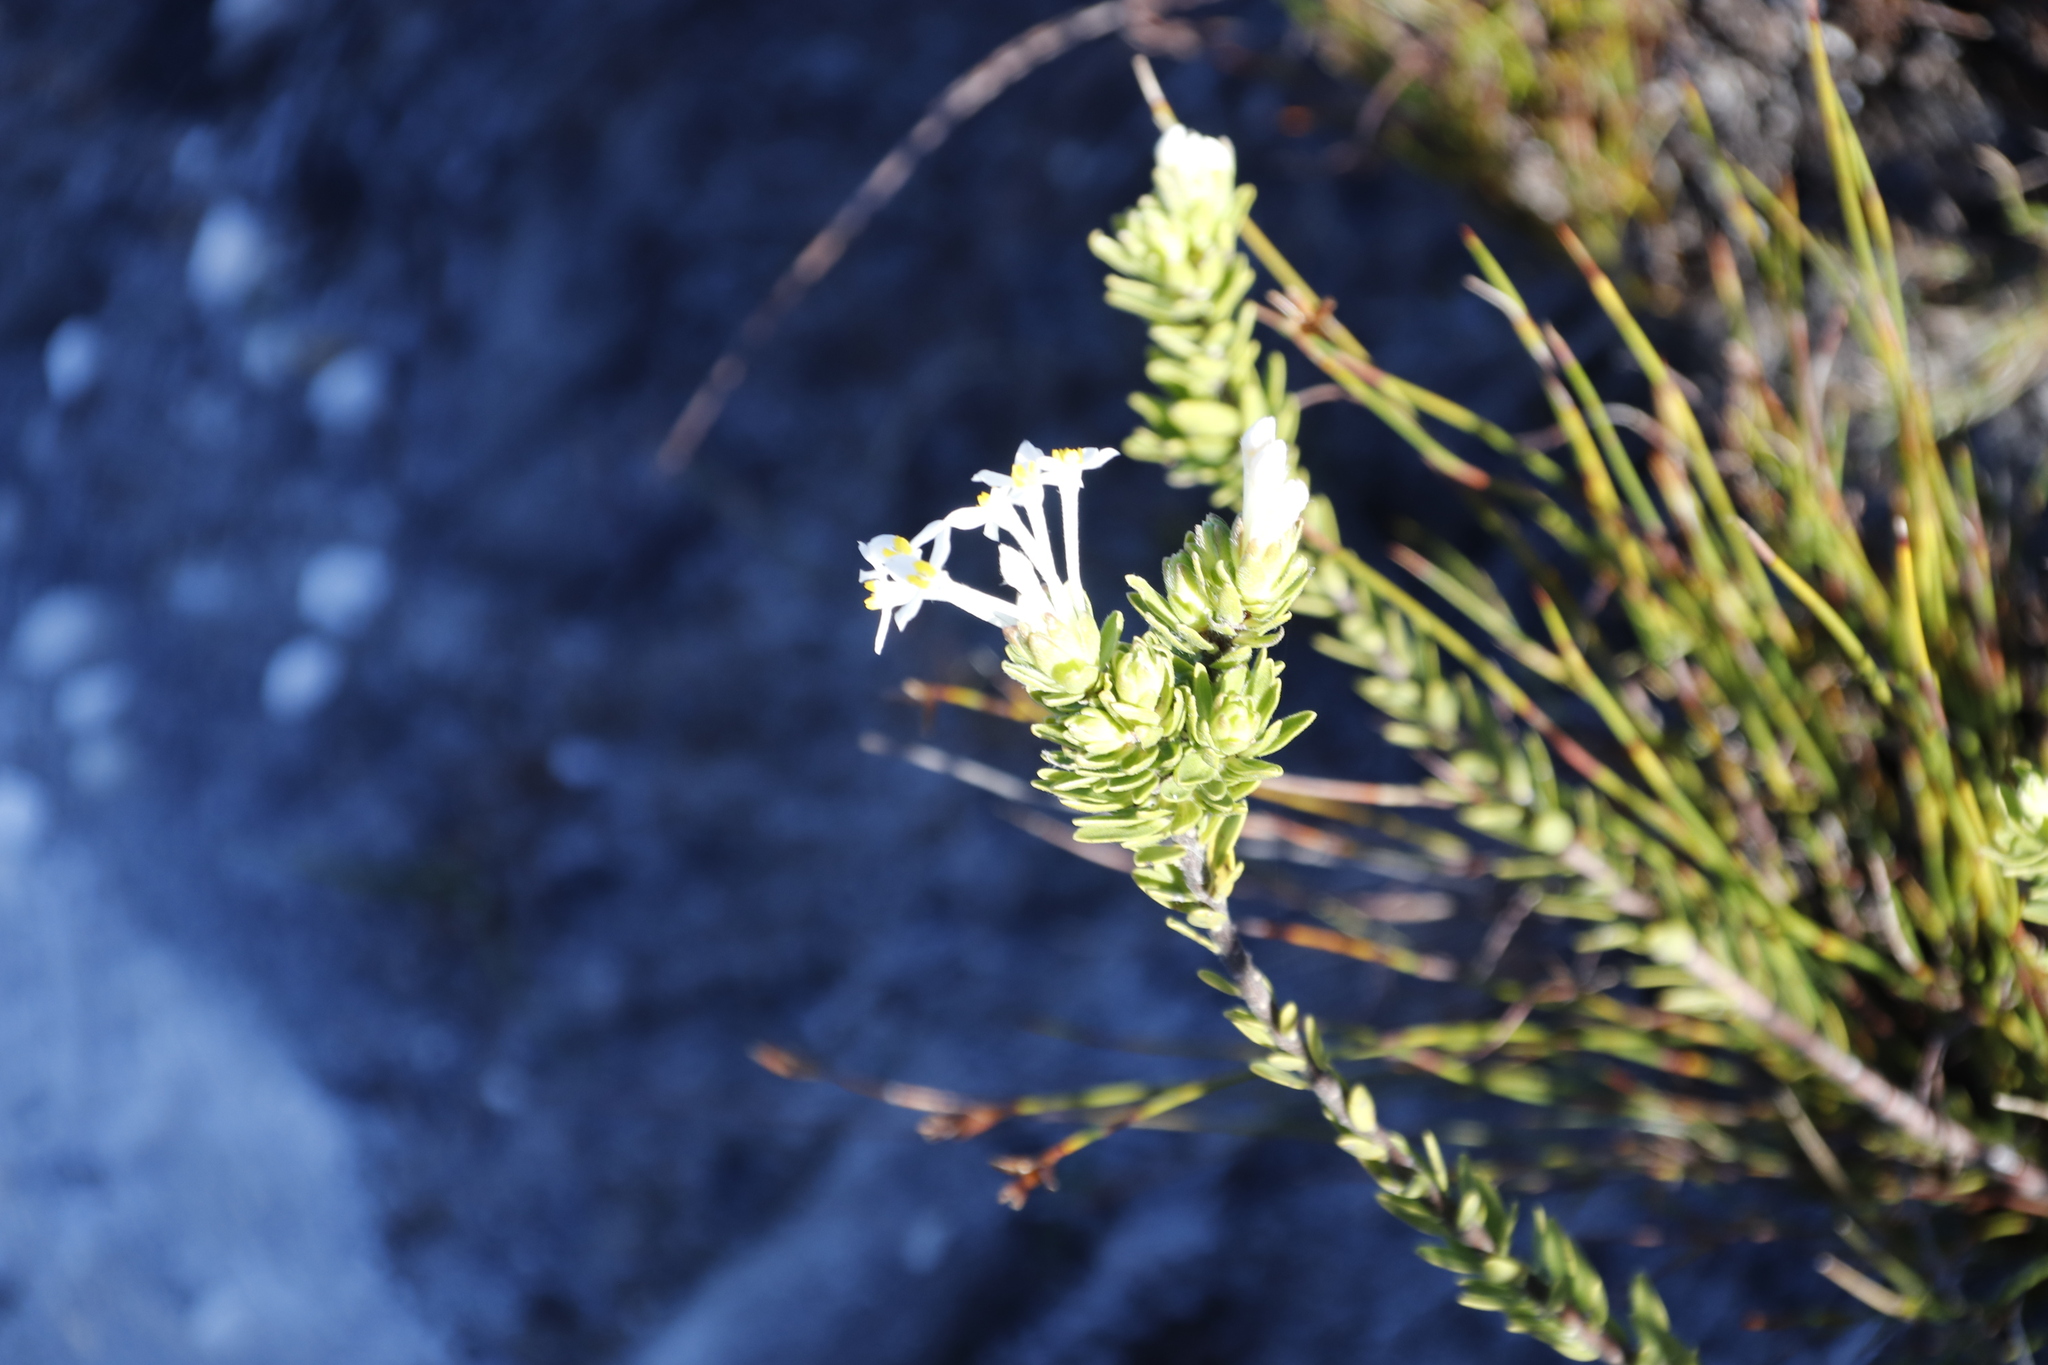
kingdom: Plantae
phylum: Tracheophyta
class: Magnoliopsida
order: Malvales
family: Thymelaeaceae
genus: Gnidia
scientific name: Gnidia tomentosa
